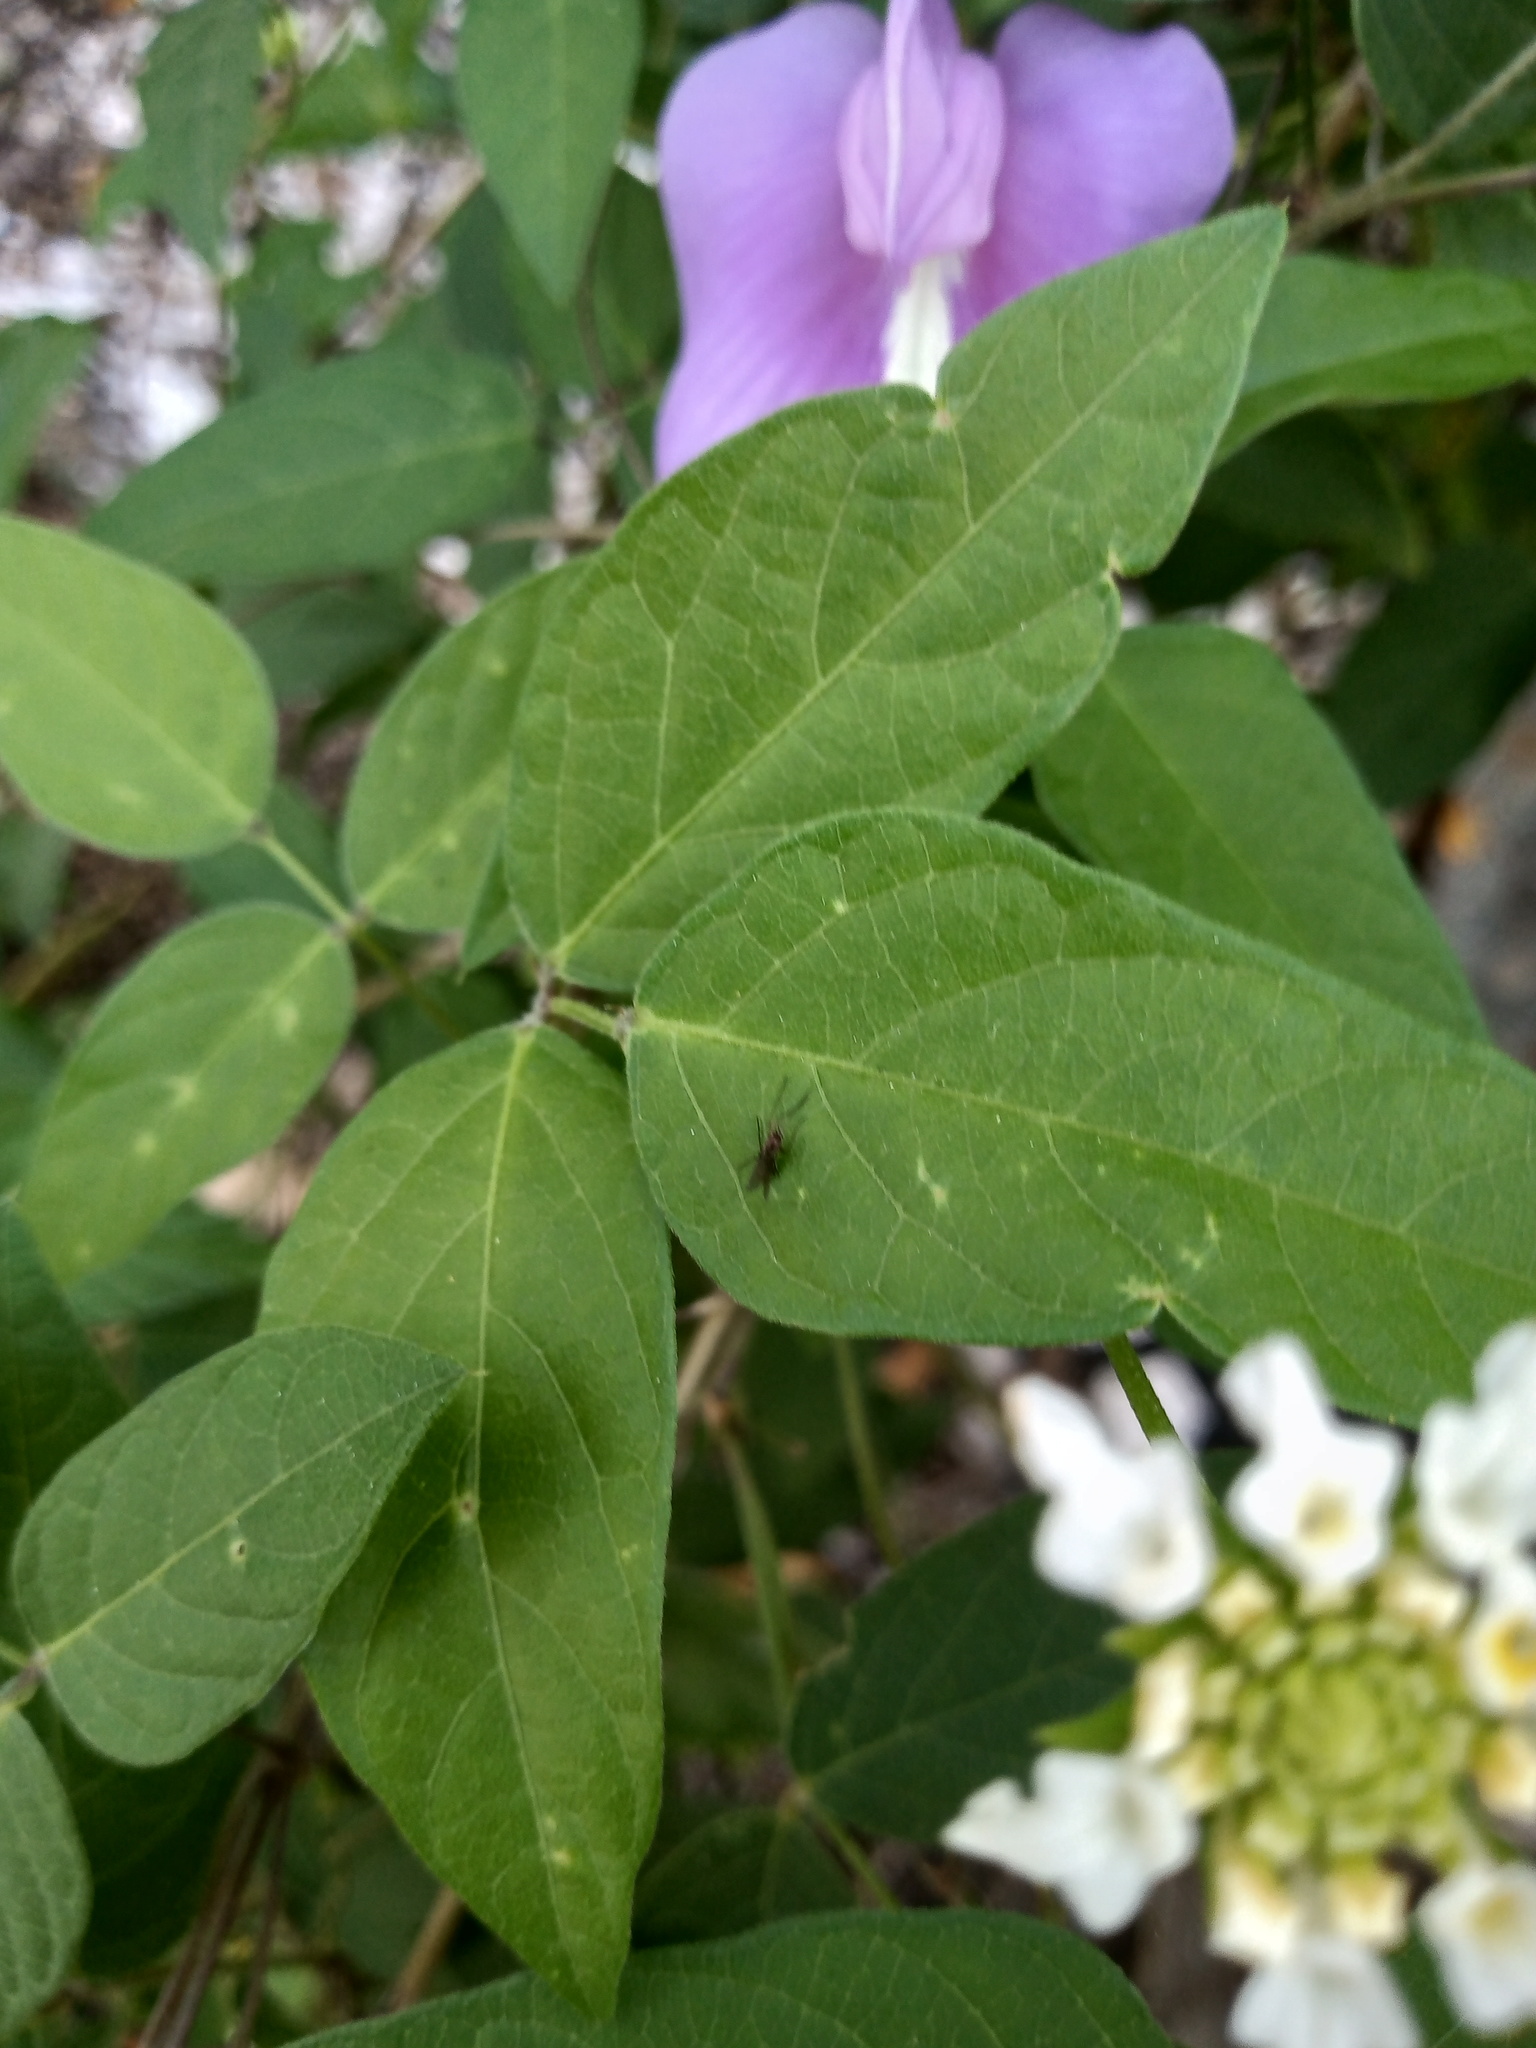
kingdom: Plantae
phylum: Tracheophyta
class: Magnoliopsida
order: Fabales
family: Fabaceae
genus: Centrosema
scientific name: Centrosema virginianum
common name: Butterfly-pea
